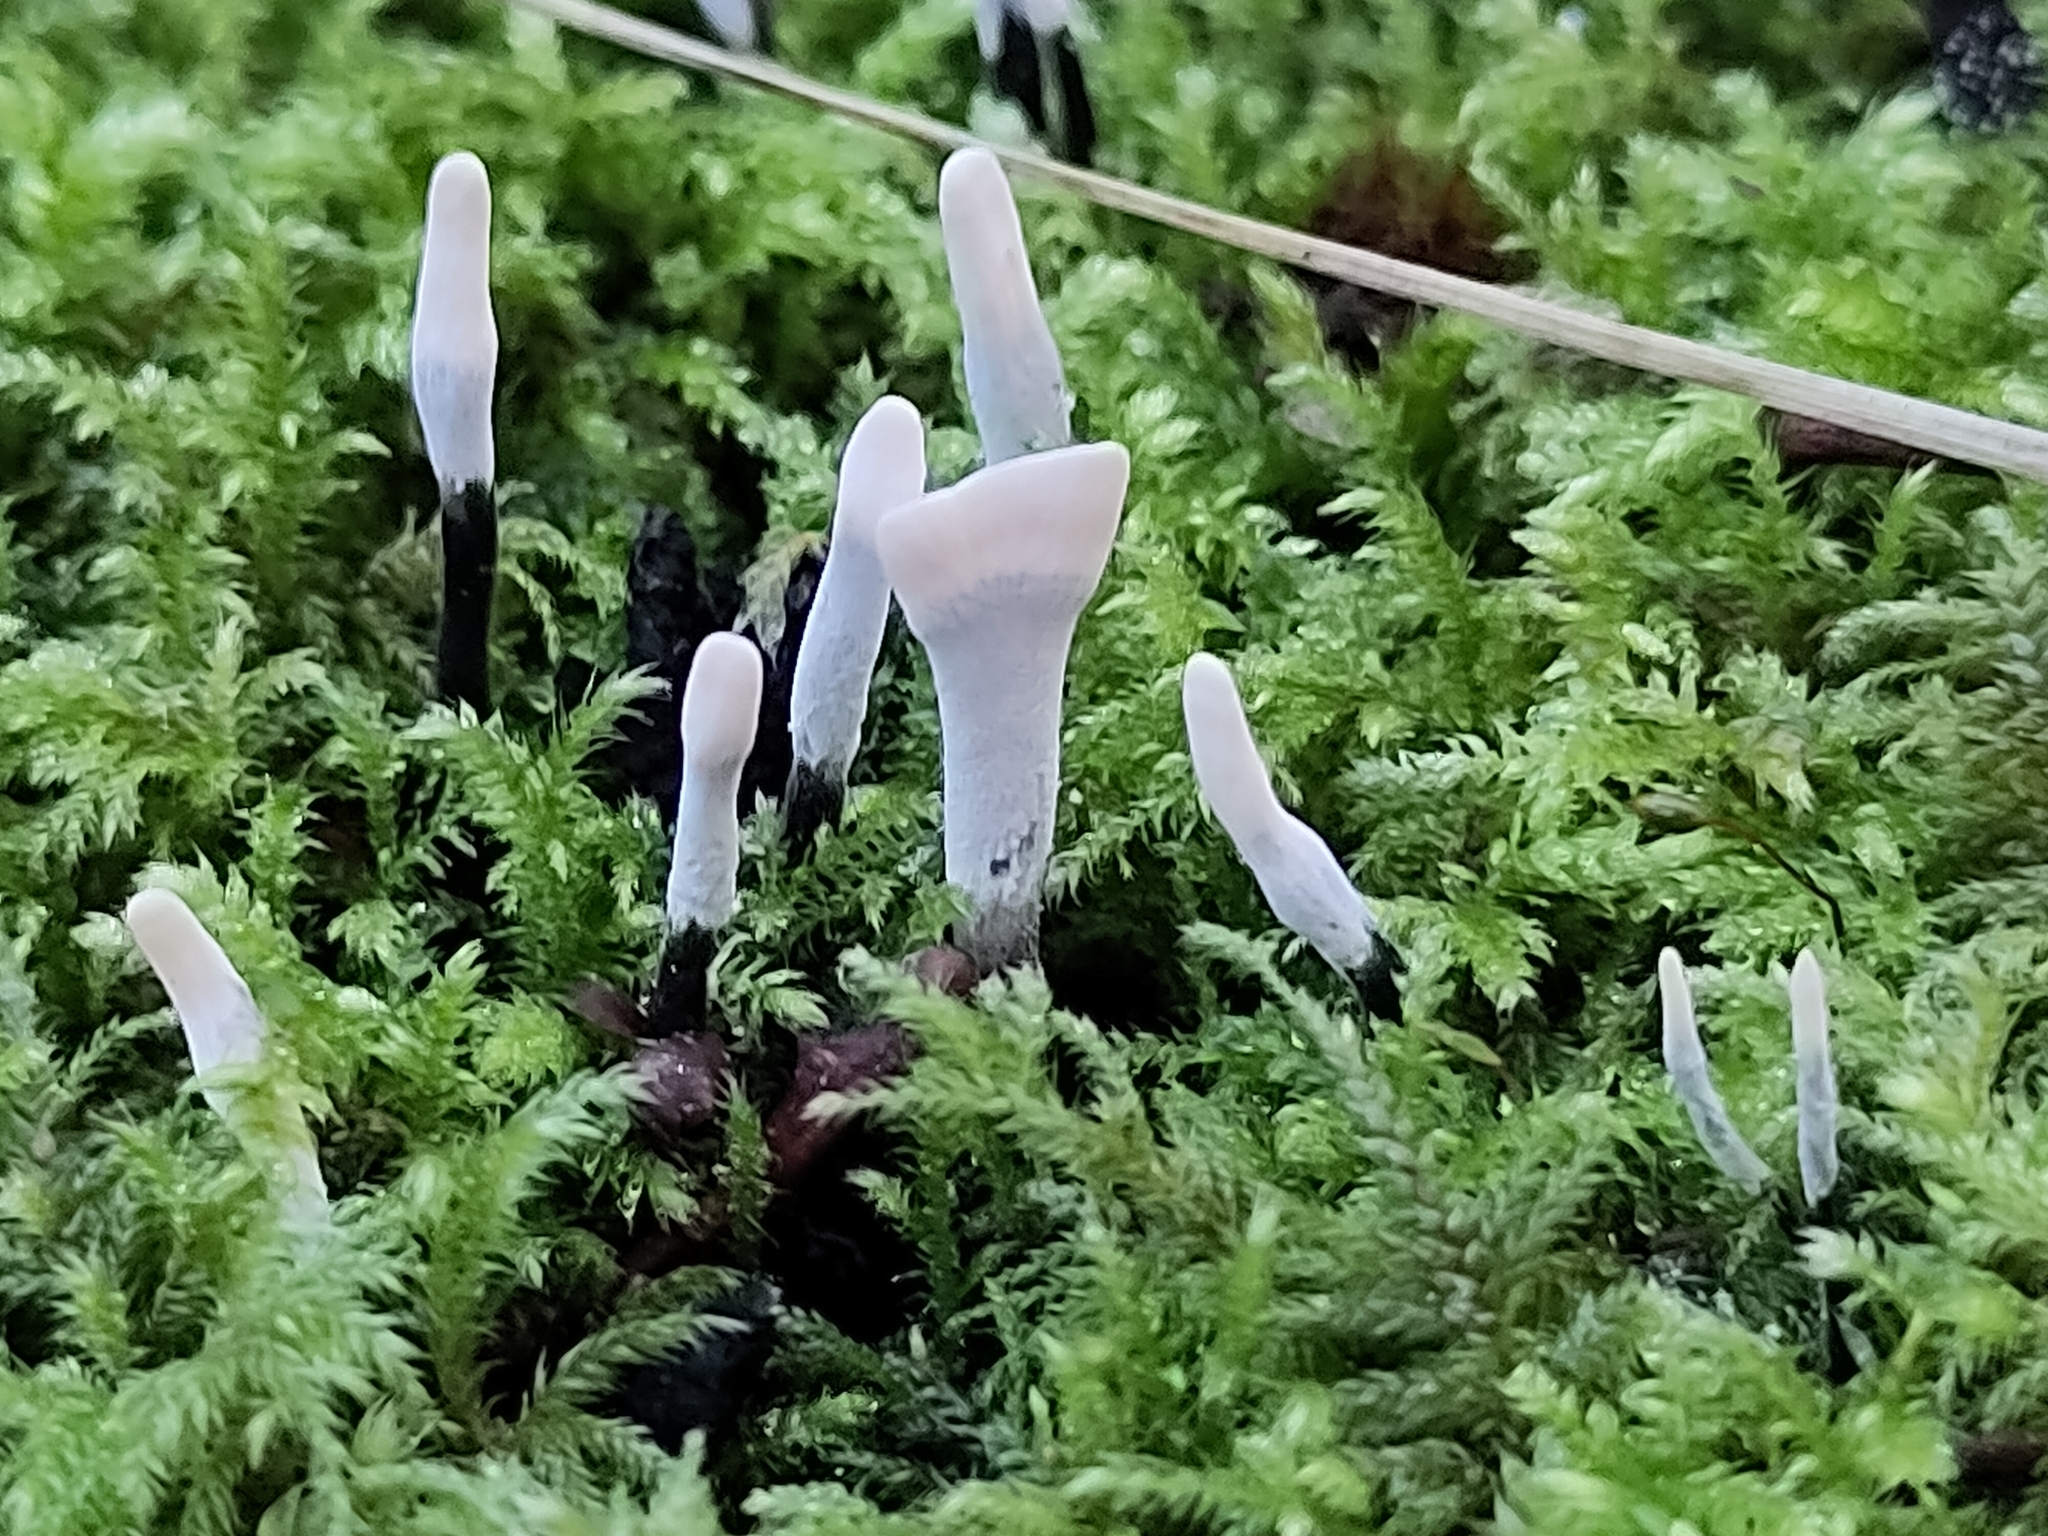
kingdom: Fungi
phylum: Ascomycota
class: Sordariomycetes
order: Xylariales
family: Xylariaceae
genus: Xylaria
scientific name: Xylaria hypoxylon
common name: Candle-snuff fungus
